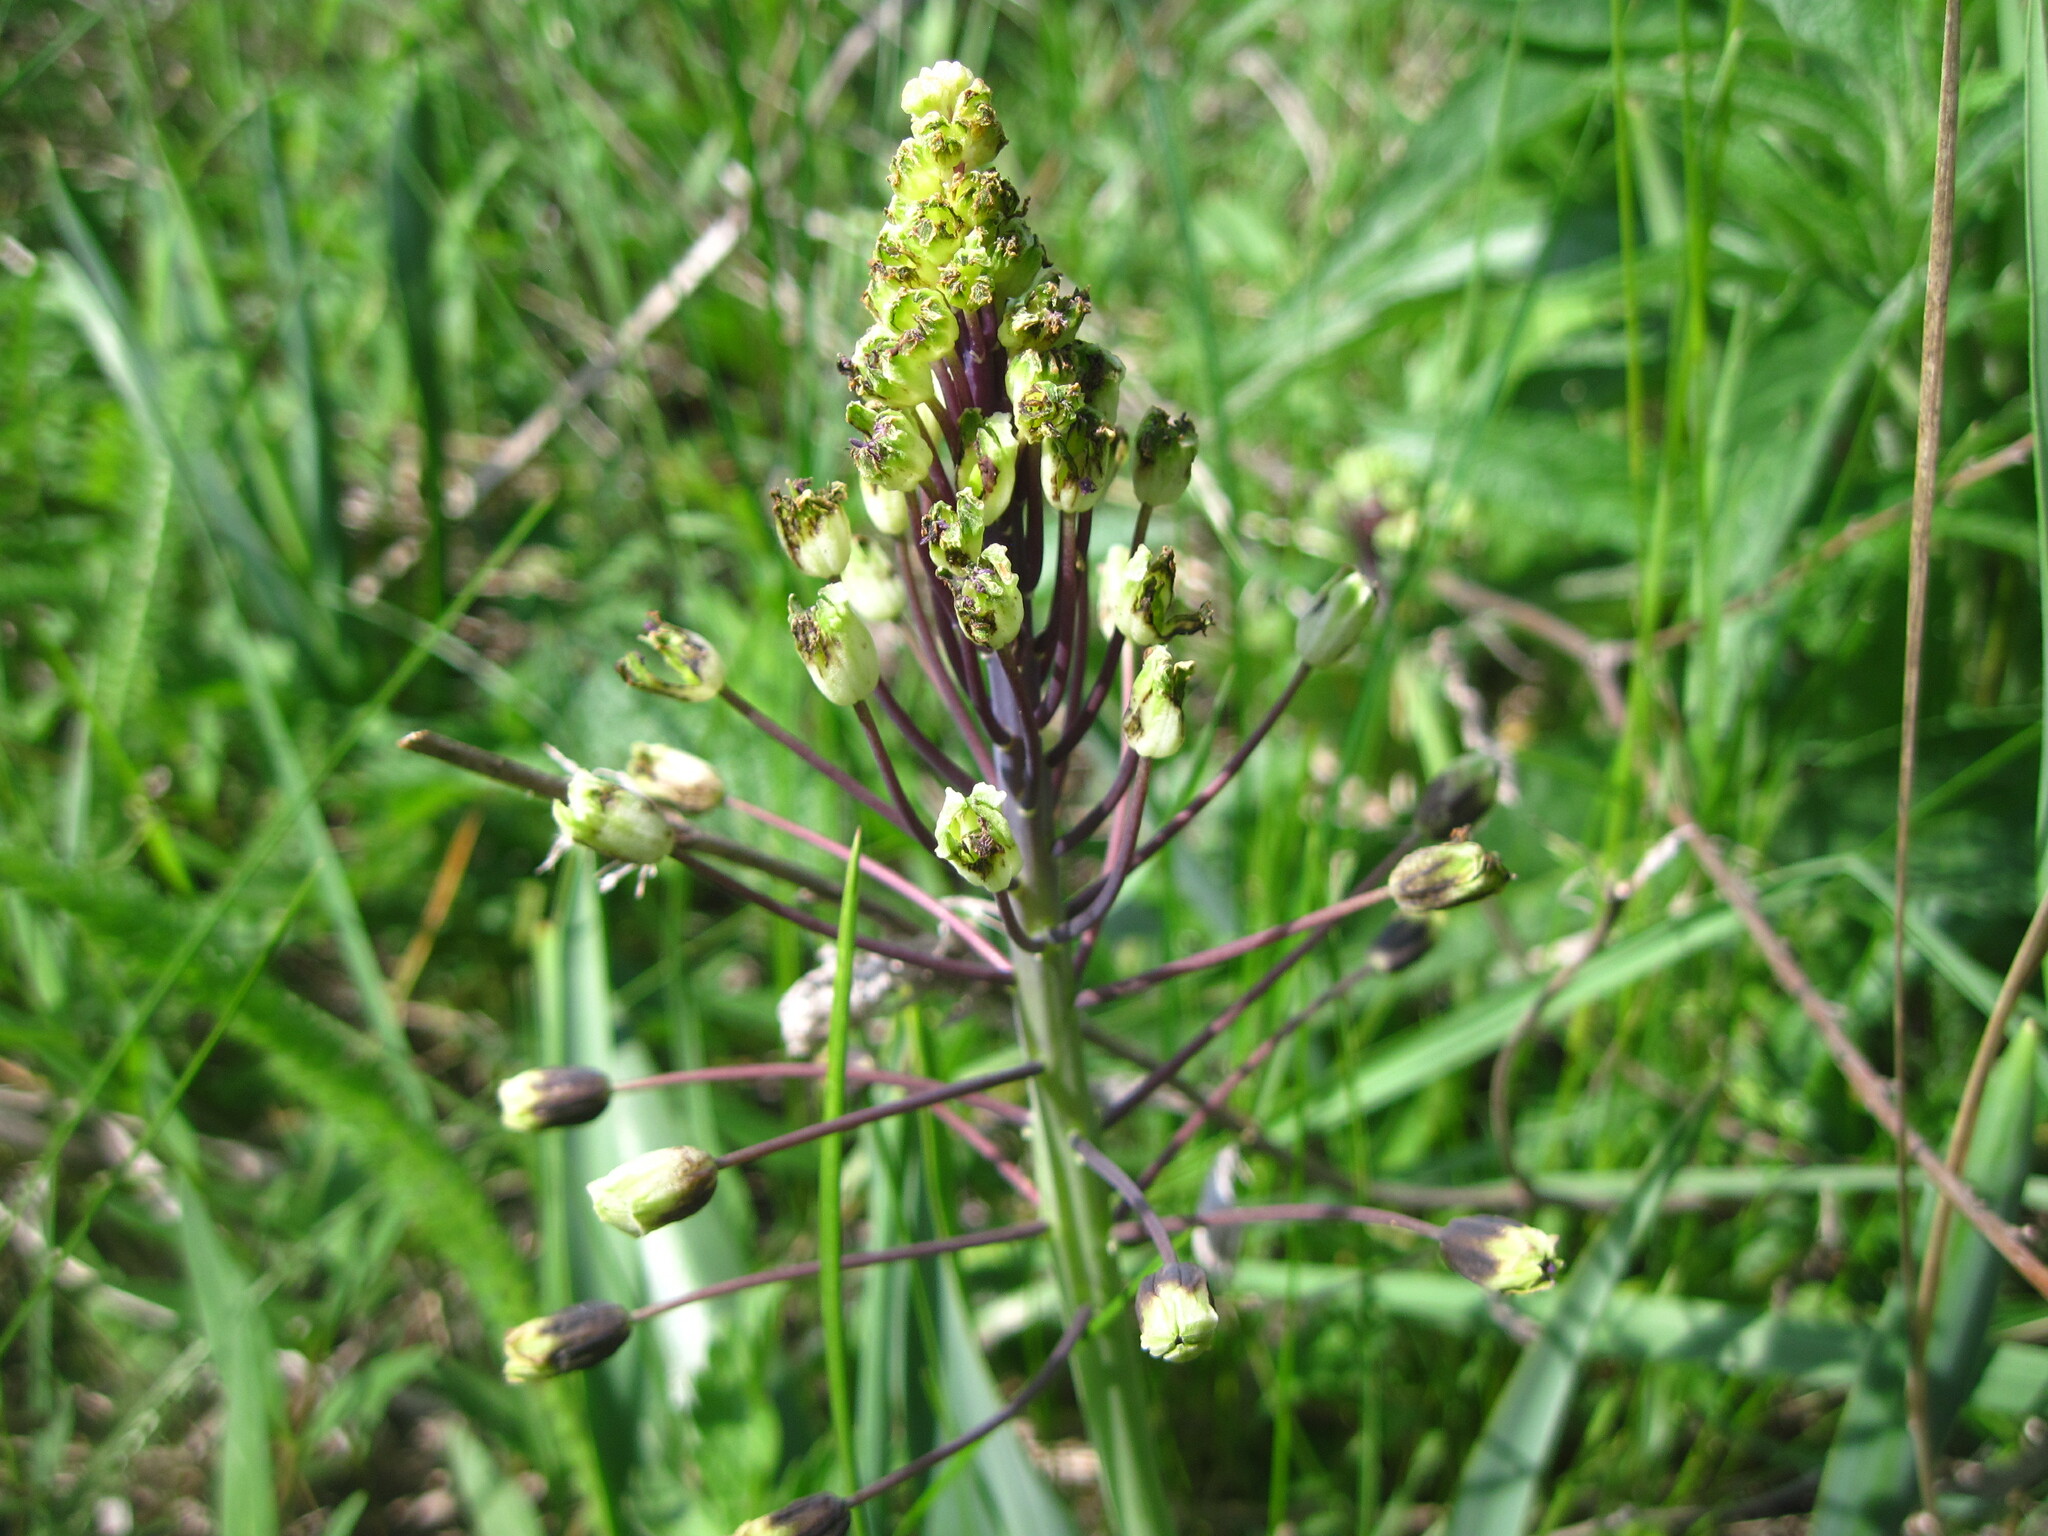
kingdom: Plantae
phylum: Tracheophyta
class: Liliopsida
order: Asparagales
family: Asparagaceae
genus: Bellevalia
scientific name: Bellevalia speciosa
